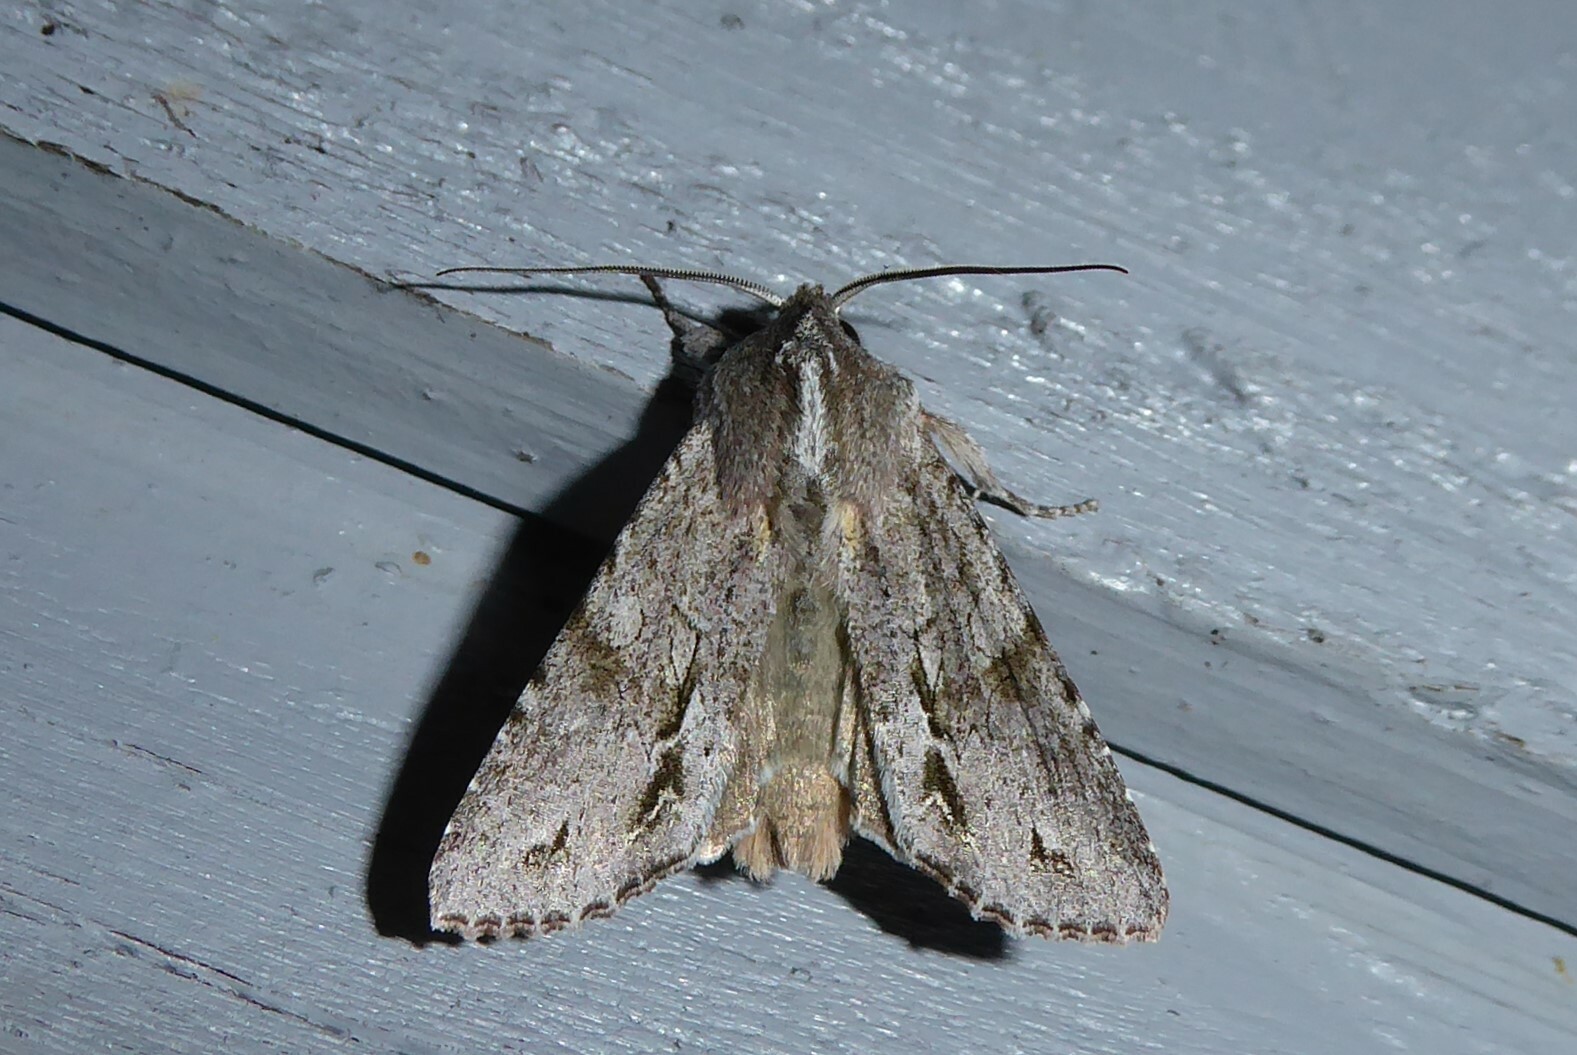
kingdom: Animalia
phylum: Arthropoda
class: Insecta
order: Lepidoptera
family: Noctuidae
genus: Ichneutica
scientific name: Ichneutica
